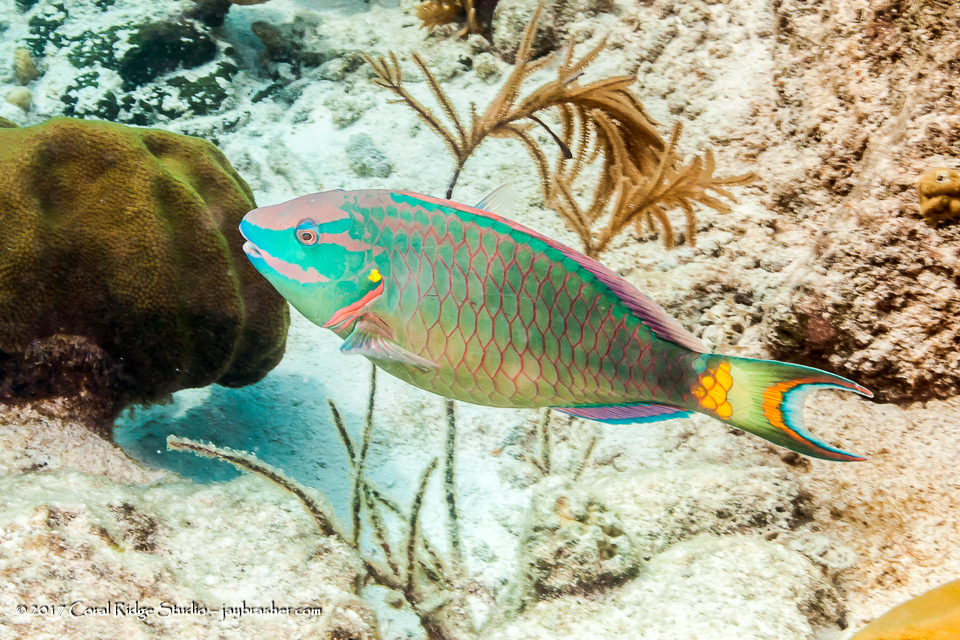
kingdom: Animalia
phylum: Chordata
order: Perciformes
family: Scaridae
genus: Sparisoma
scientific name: Sparisoma viride
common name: Stoplight parrotfish
